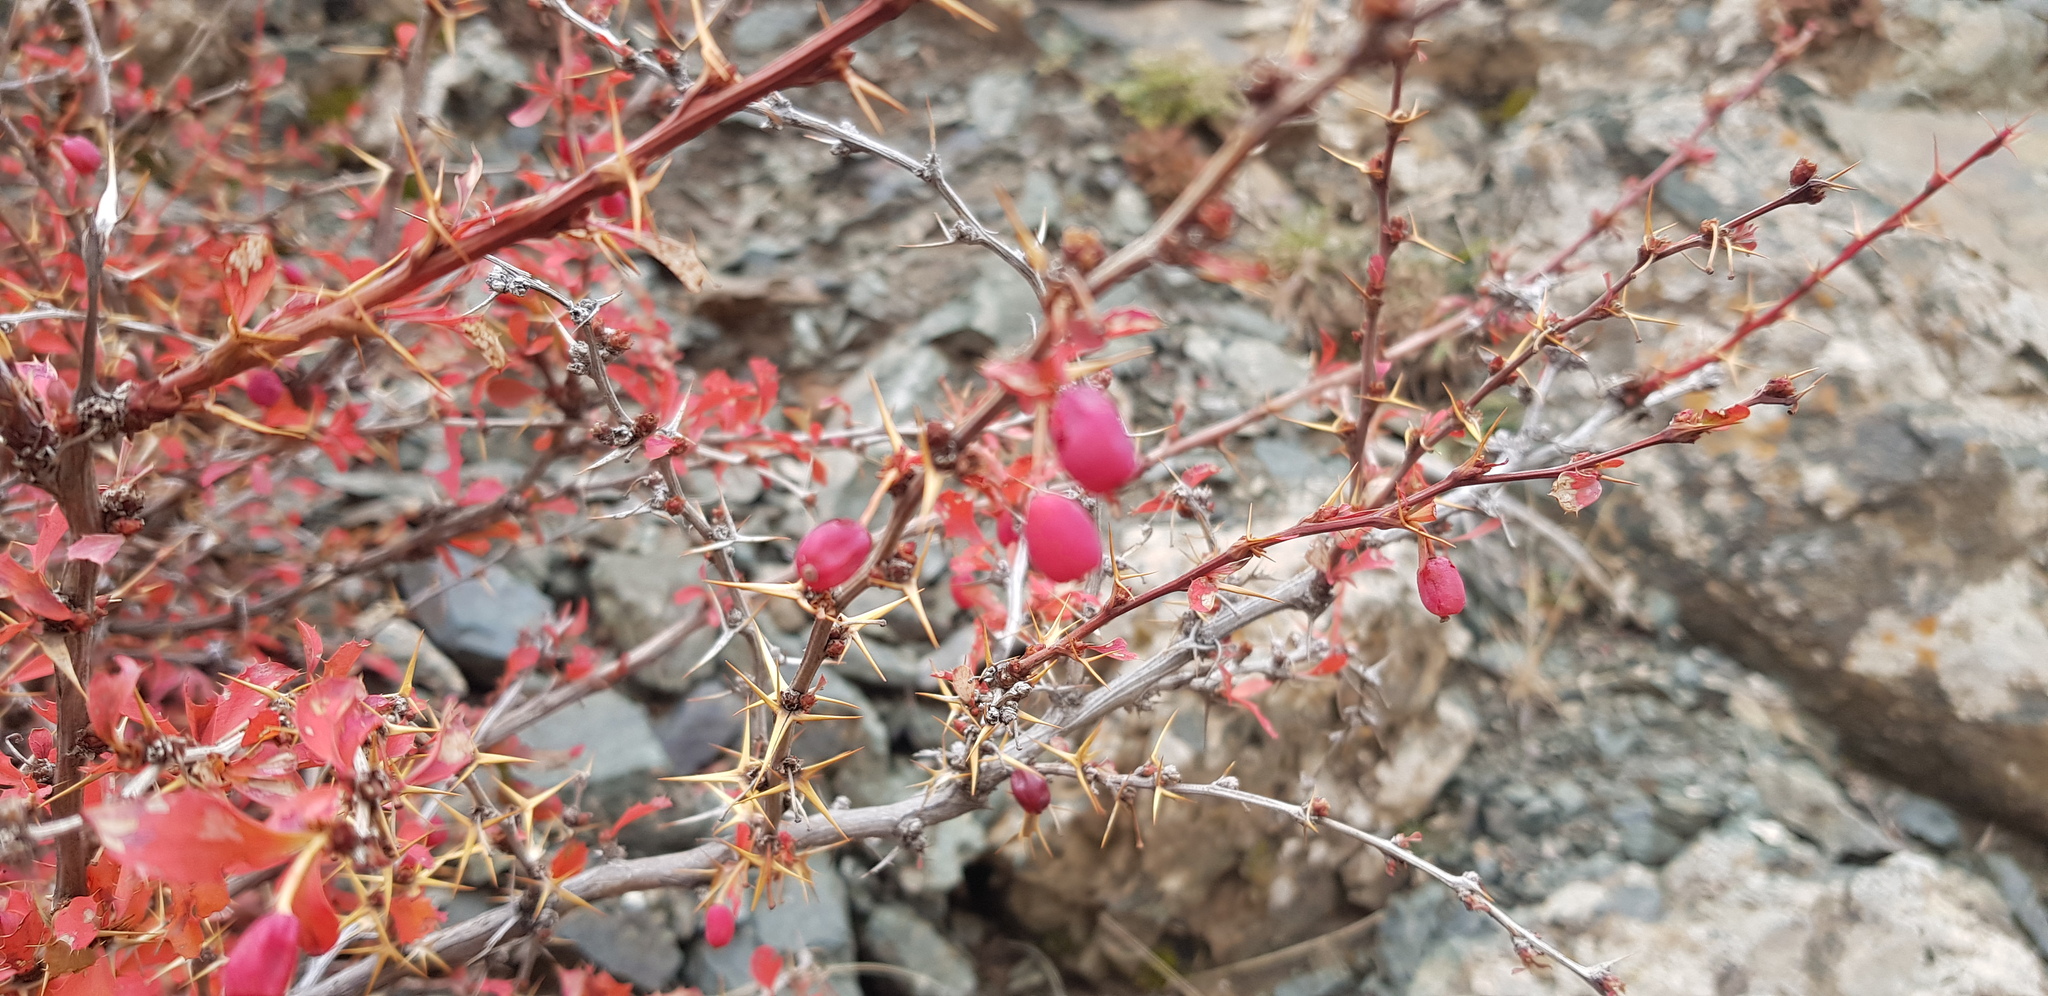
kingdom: Plantae
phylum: Tracheophyta
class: Magnoliopsida
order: Ranunculales
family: Berberidaceae
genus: Berberis
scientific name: Berberis sibirica
